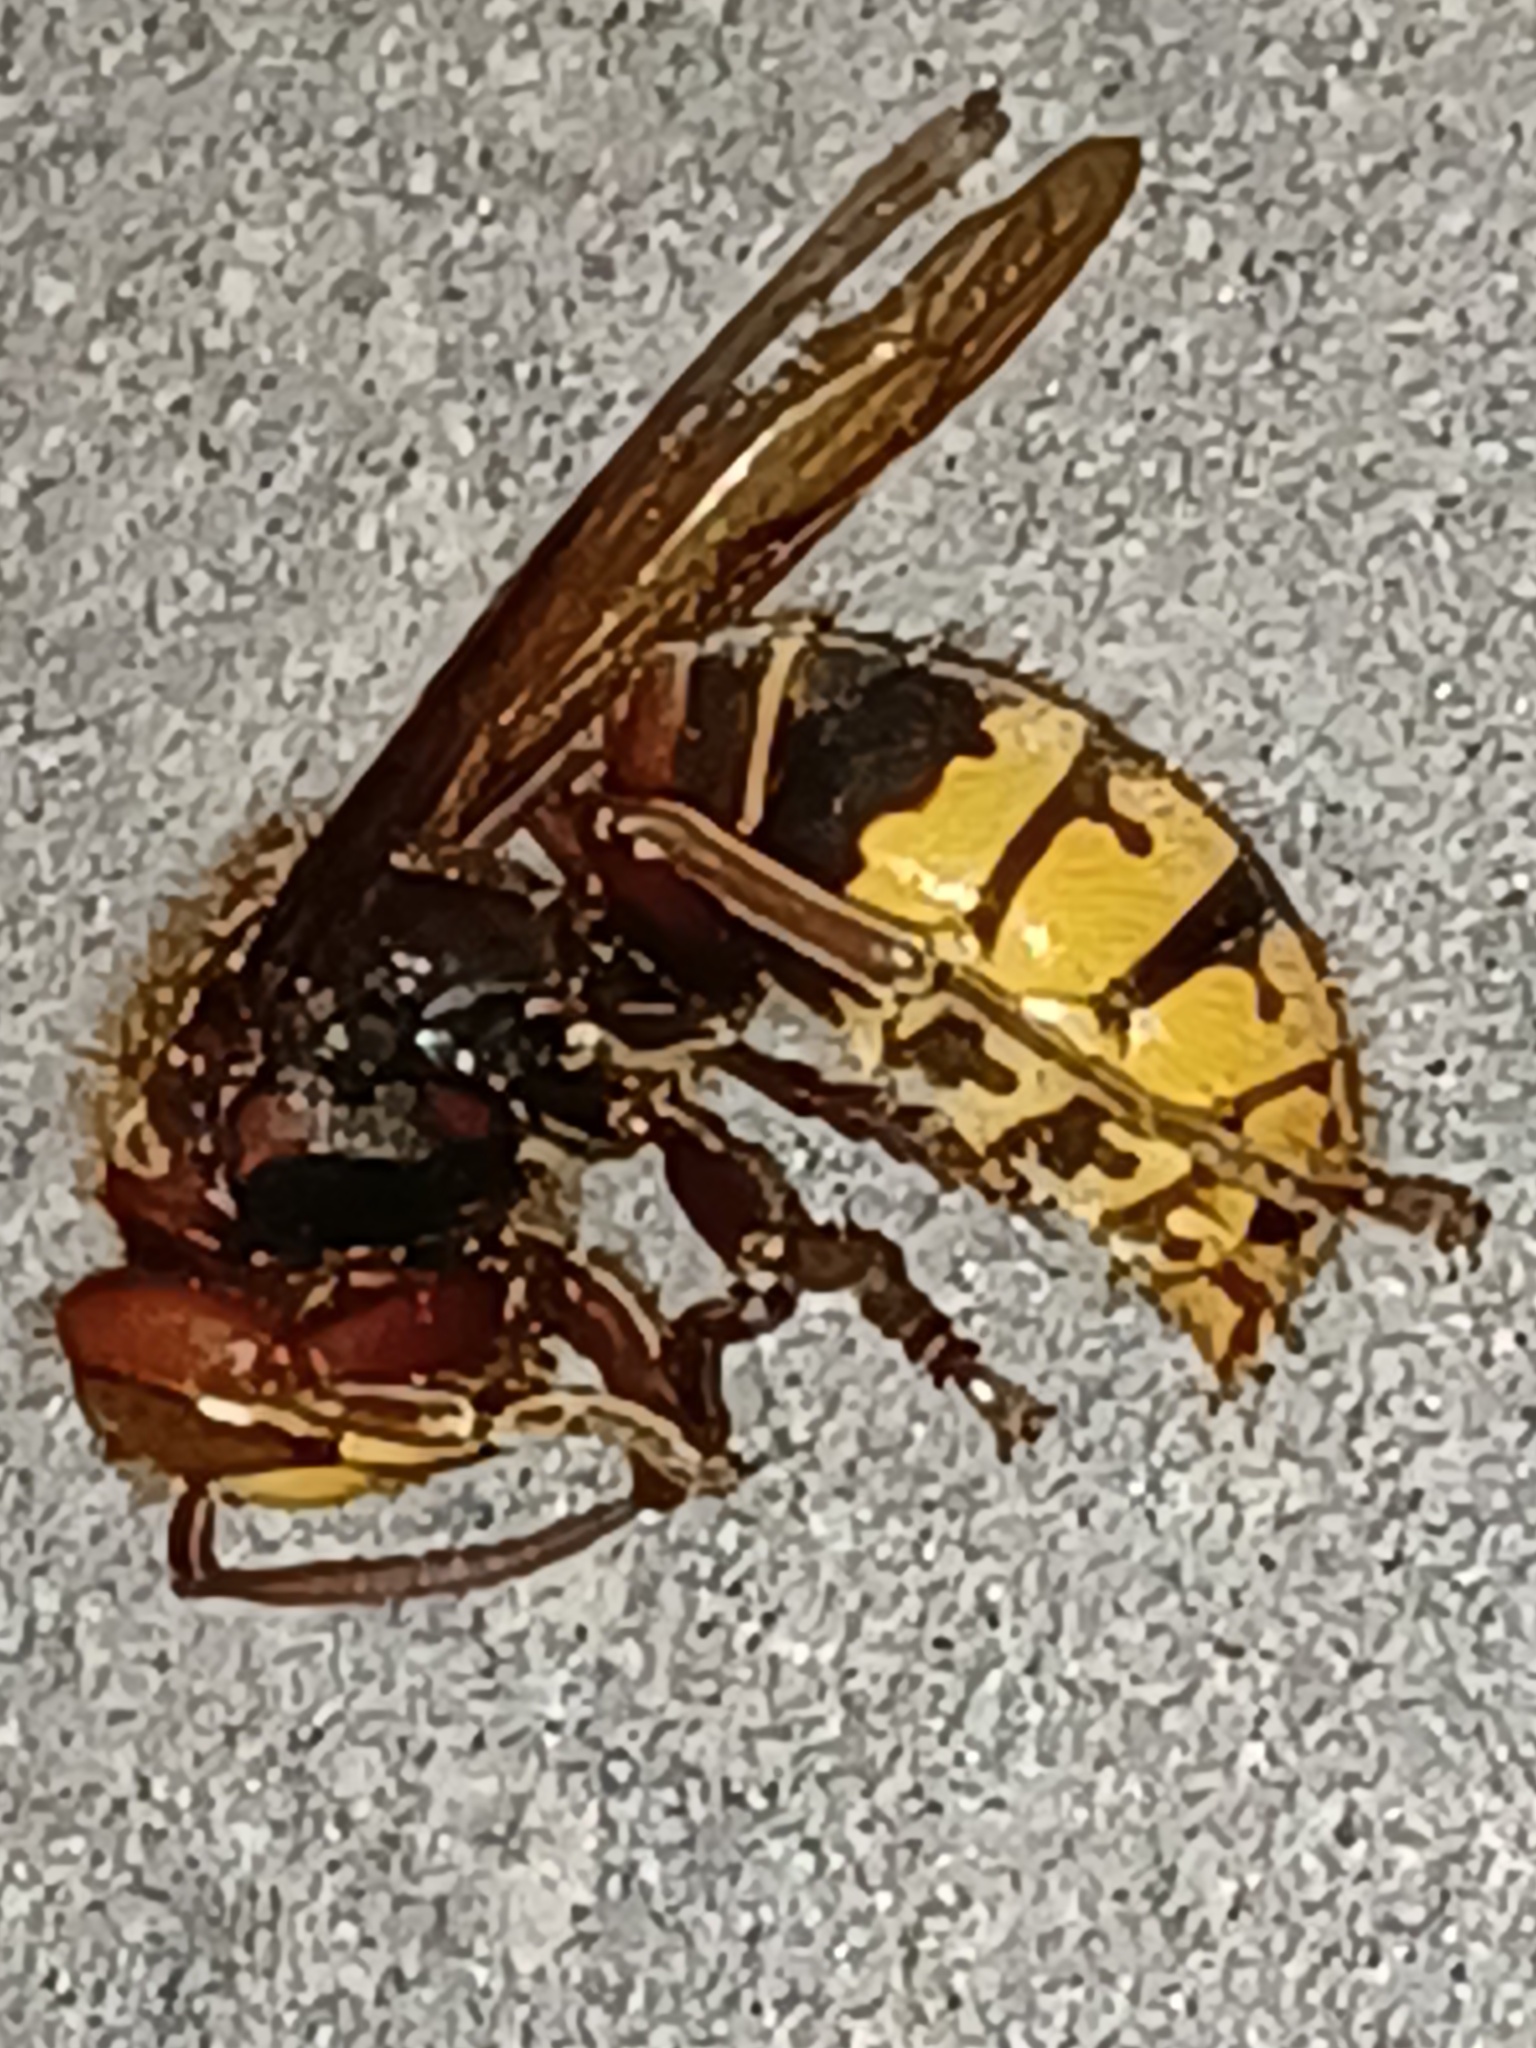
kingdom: Animalia
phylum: Arthropoda
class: Insecta
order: Hymenoptera
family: Vespidae
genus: Vespa
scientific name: Vespa crabro
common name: Hornet
